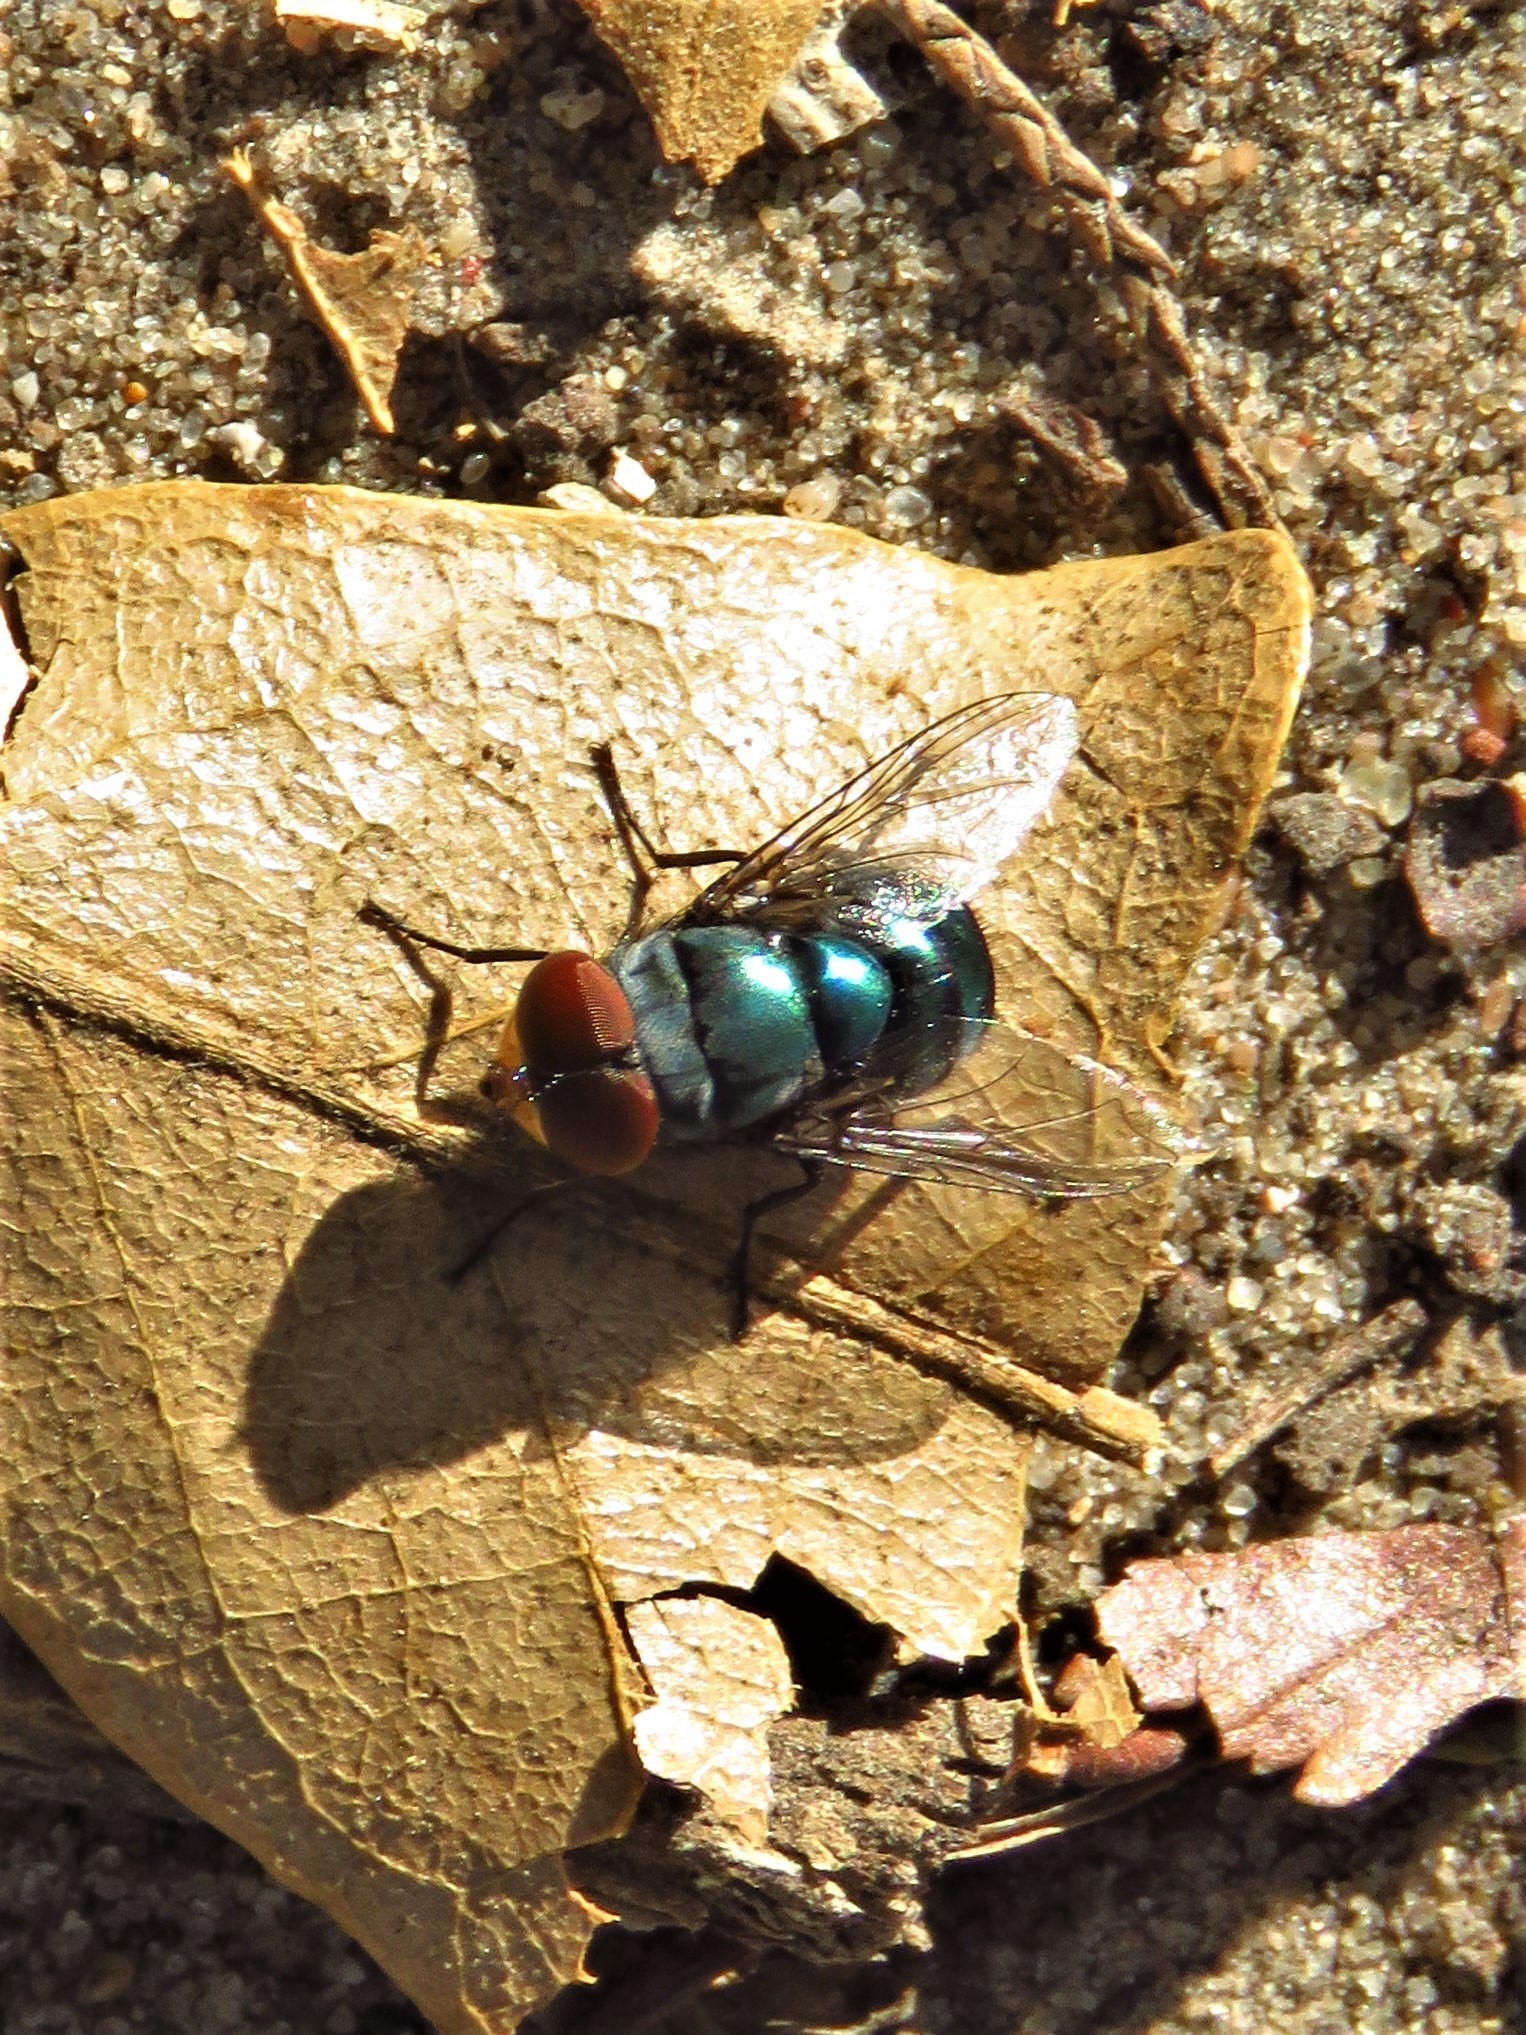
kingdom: Animalia
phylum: Arthropoda
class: Insecta
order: Diptera
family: Calliphoridae
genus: Chrysomya
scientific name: Chrysomya megacephala
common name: Blow fly
